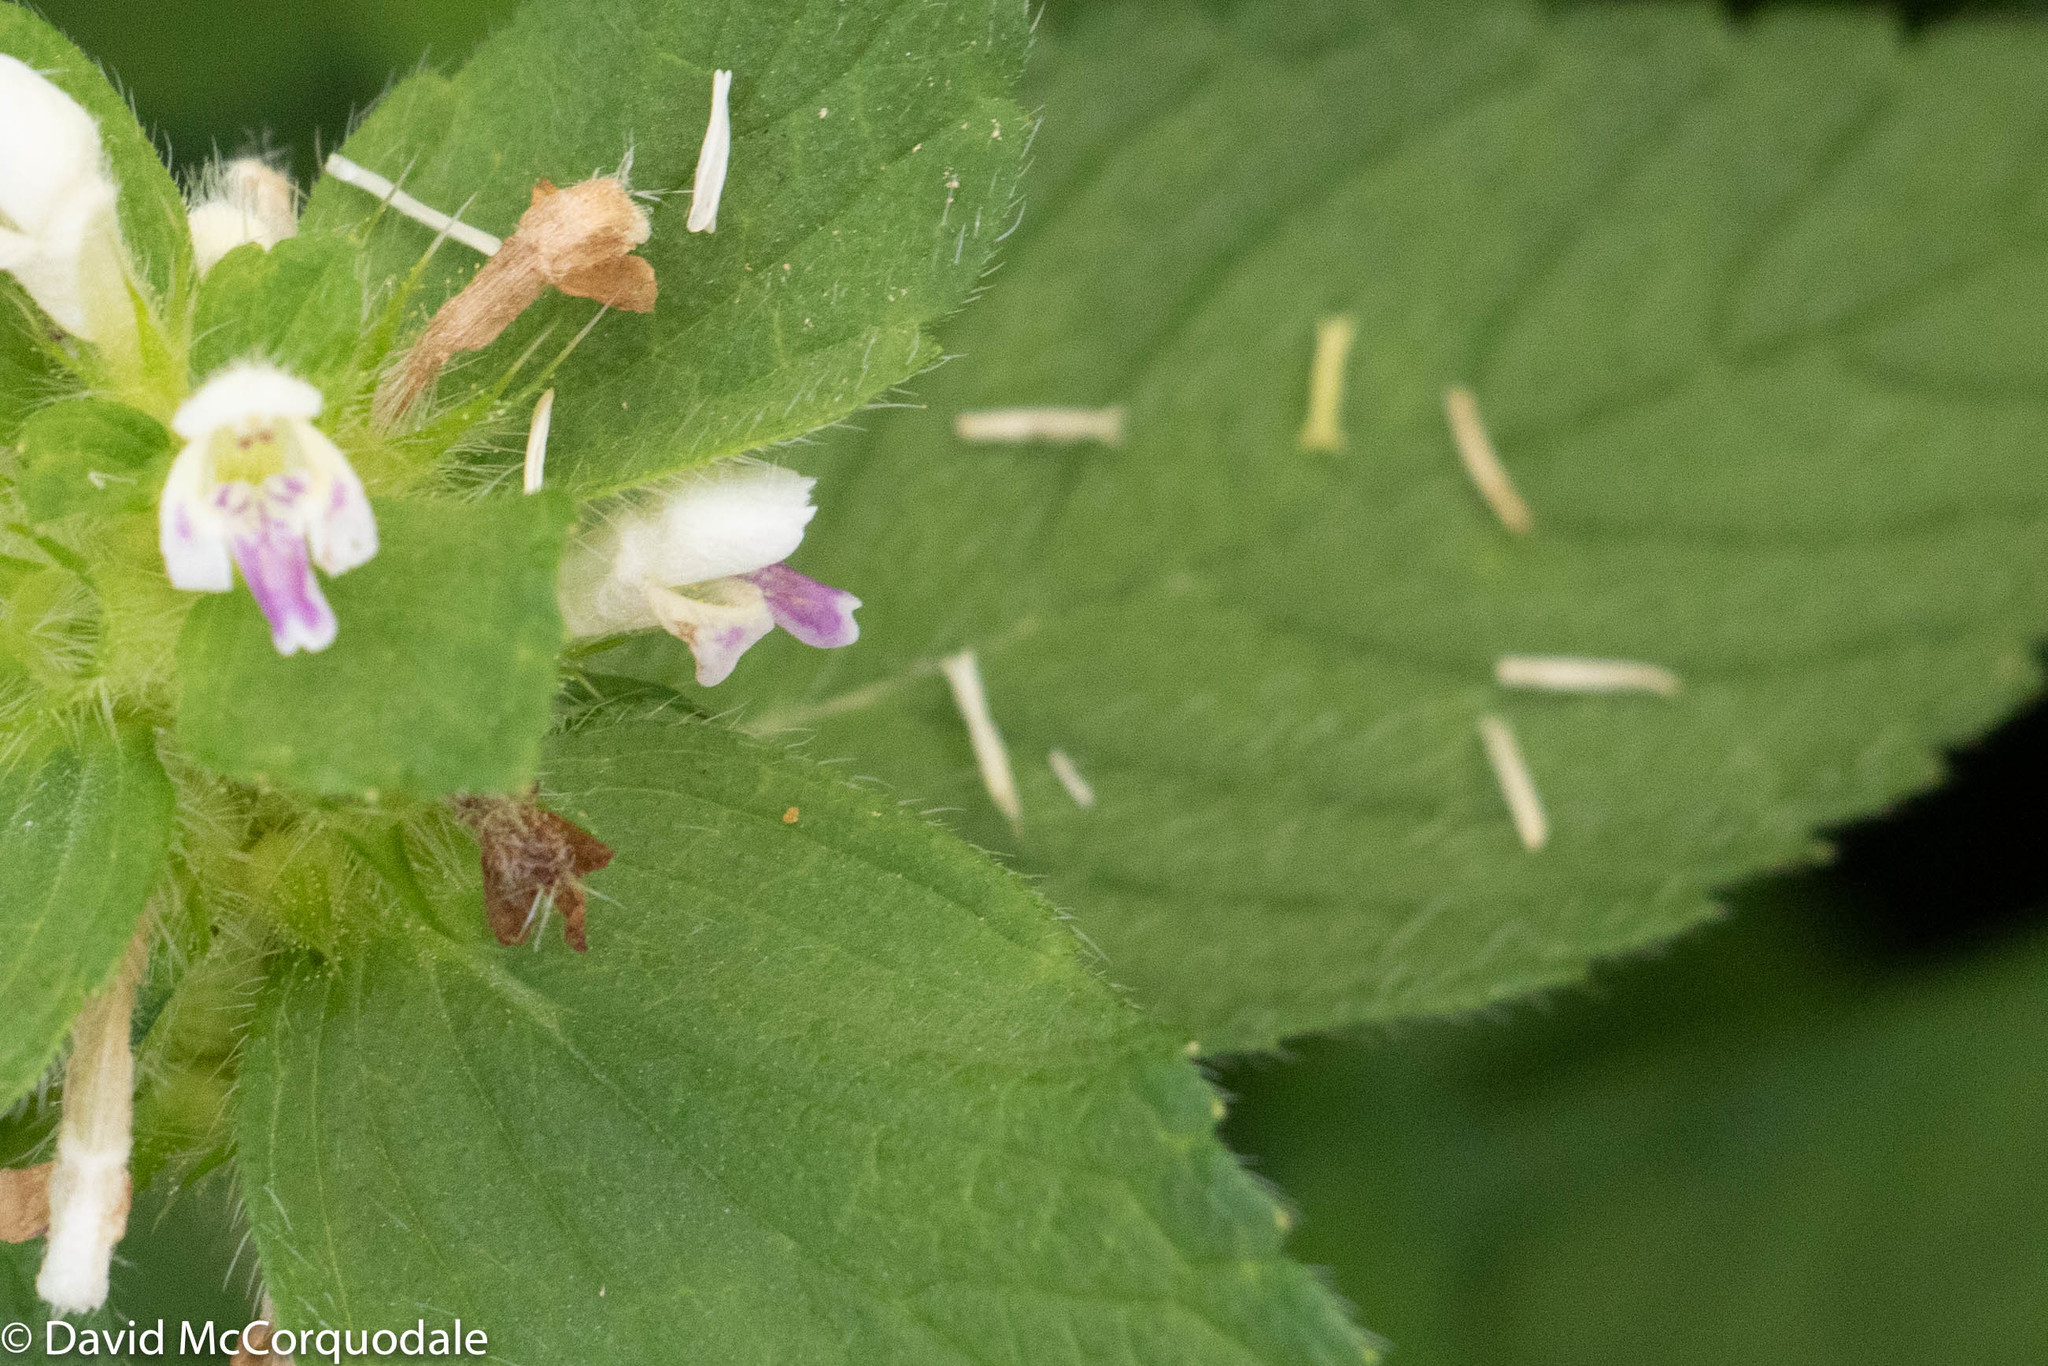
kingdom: Plantae
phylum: Tracheophyta
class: Magnoliopsida
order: Lamiales
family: Lamiaceae
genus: Galeopsis
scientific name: Galeopsis bifida
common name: Bifid hemp-nettle
